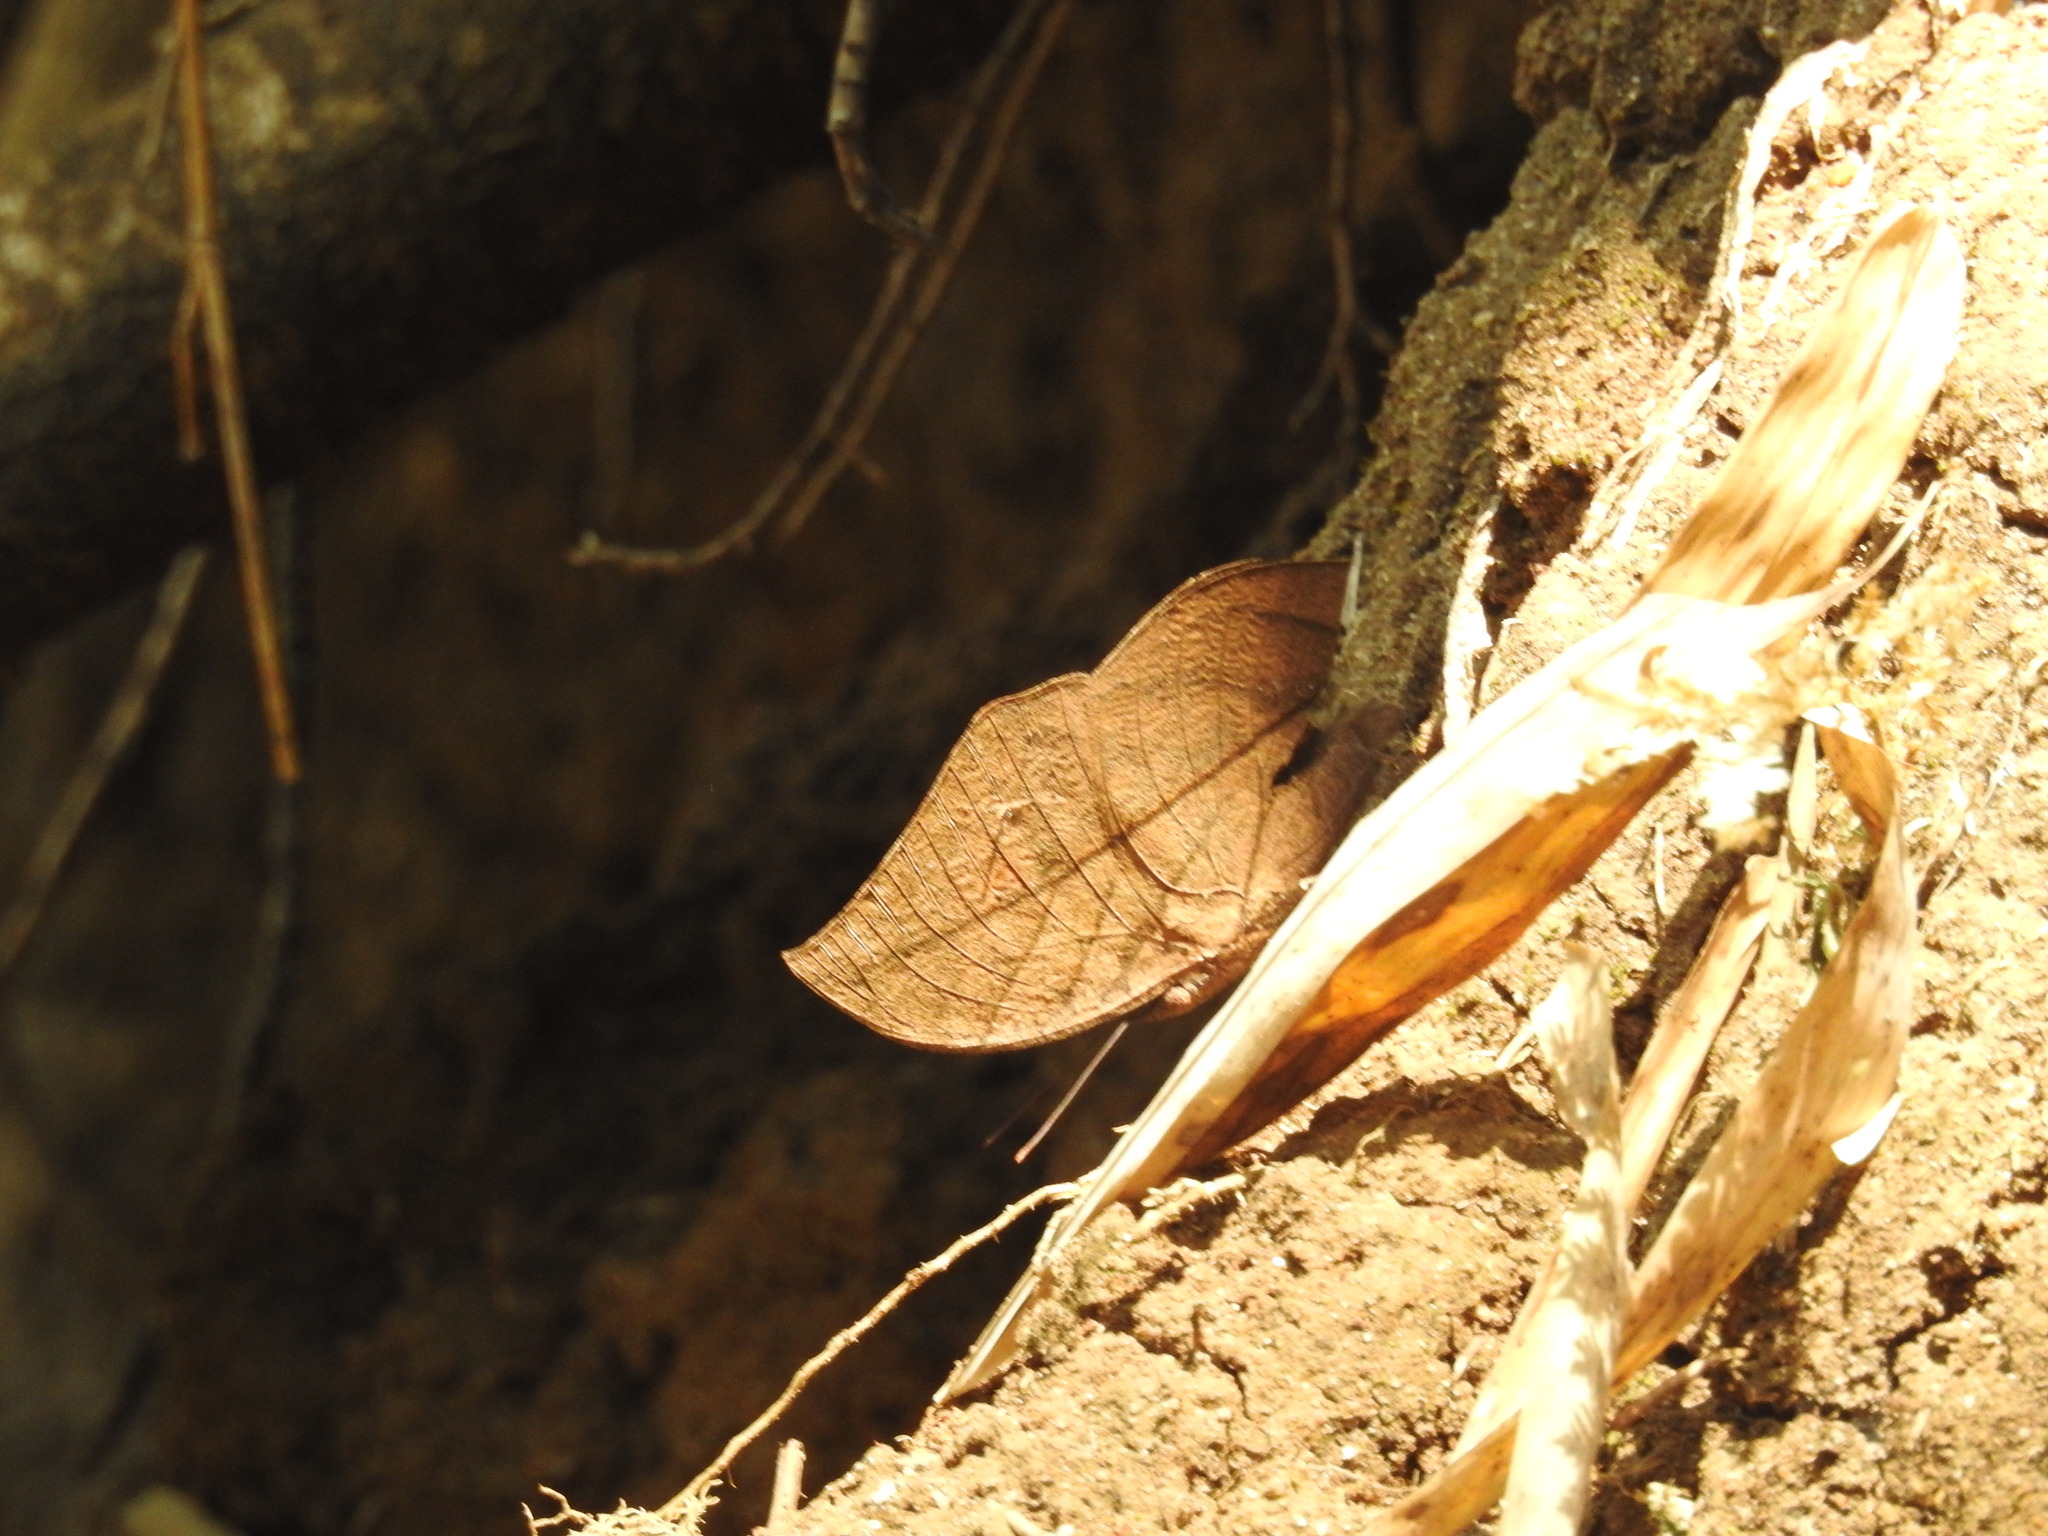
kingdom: Animalia
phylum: Arthropoda
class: Insecta
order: Lepidoptera
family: Nymphalidae
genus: Kallima
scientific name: Kallima inachus
